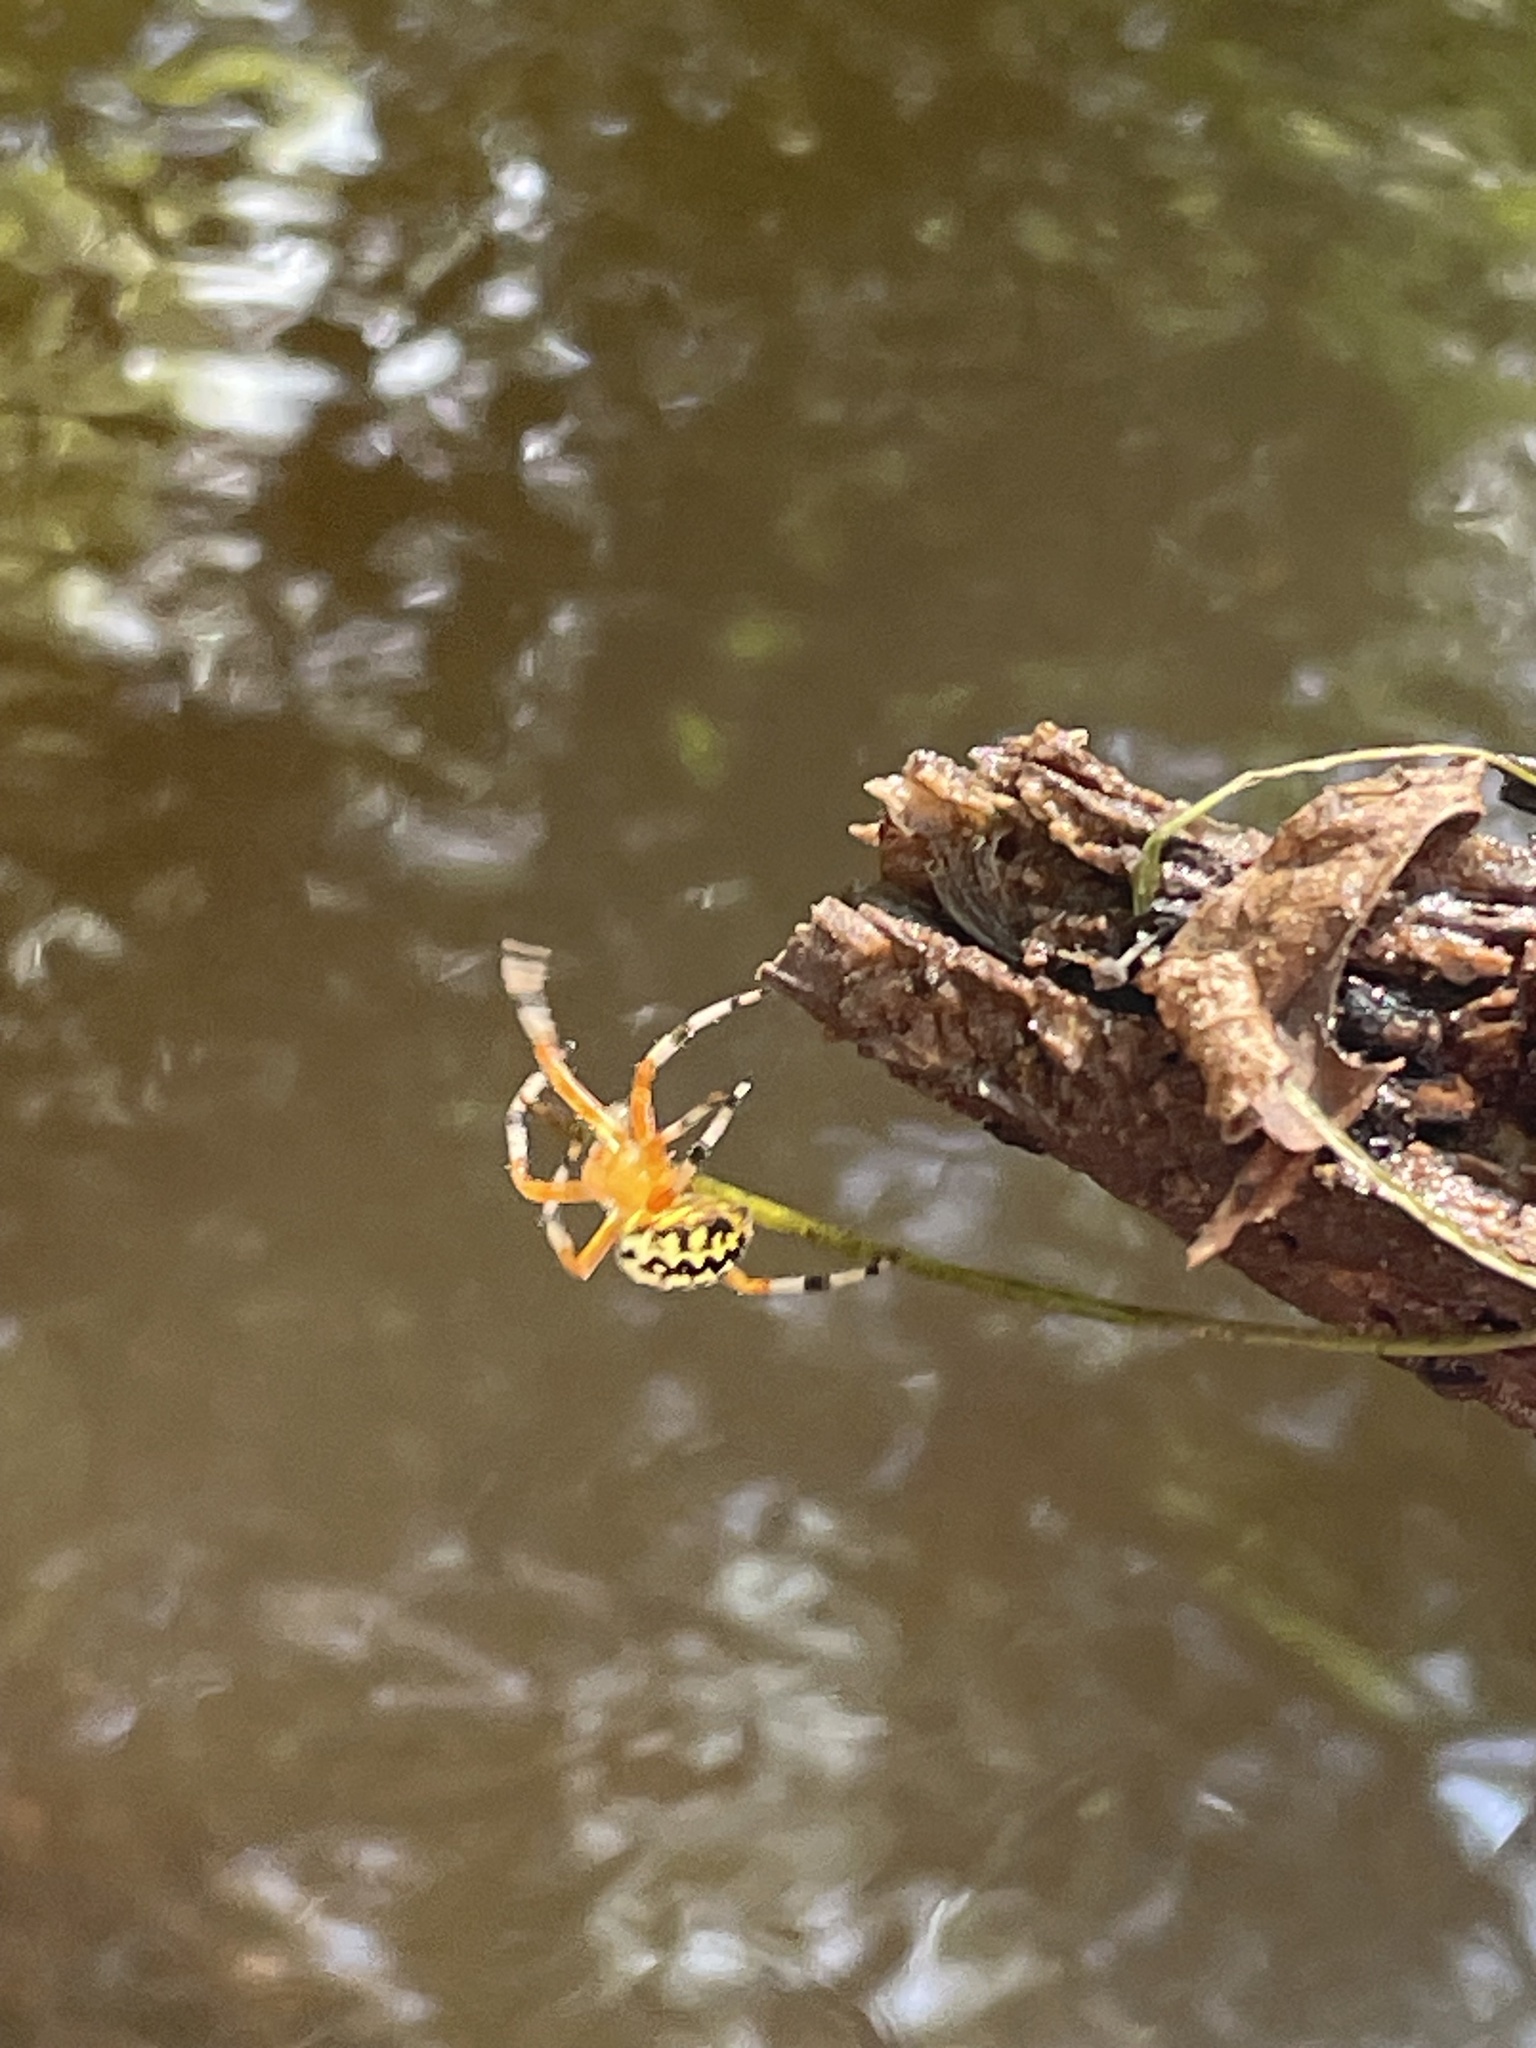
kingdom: Animalia
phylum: Arthropoda
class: Arachnida
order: Araneae
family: Araneidae
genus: Araneus
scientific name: Araneus marmoreus
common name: Marbled orbweaver
